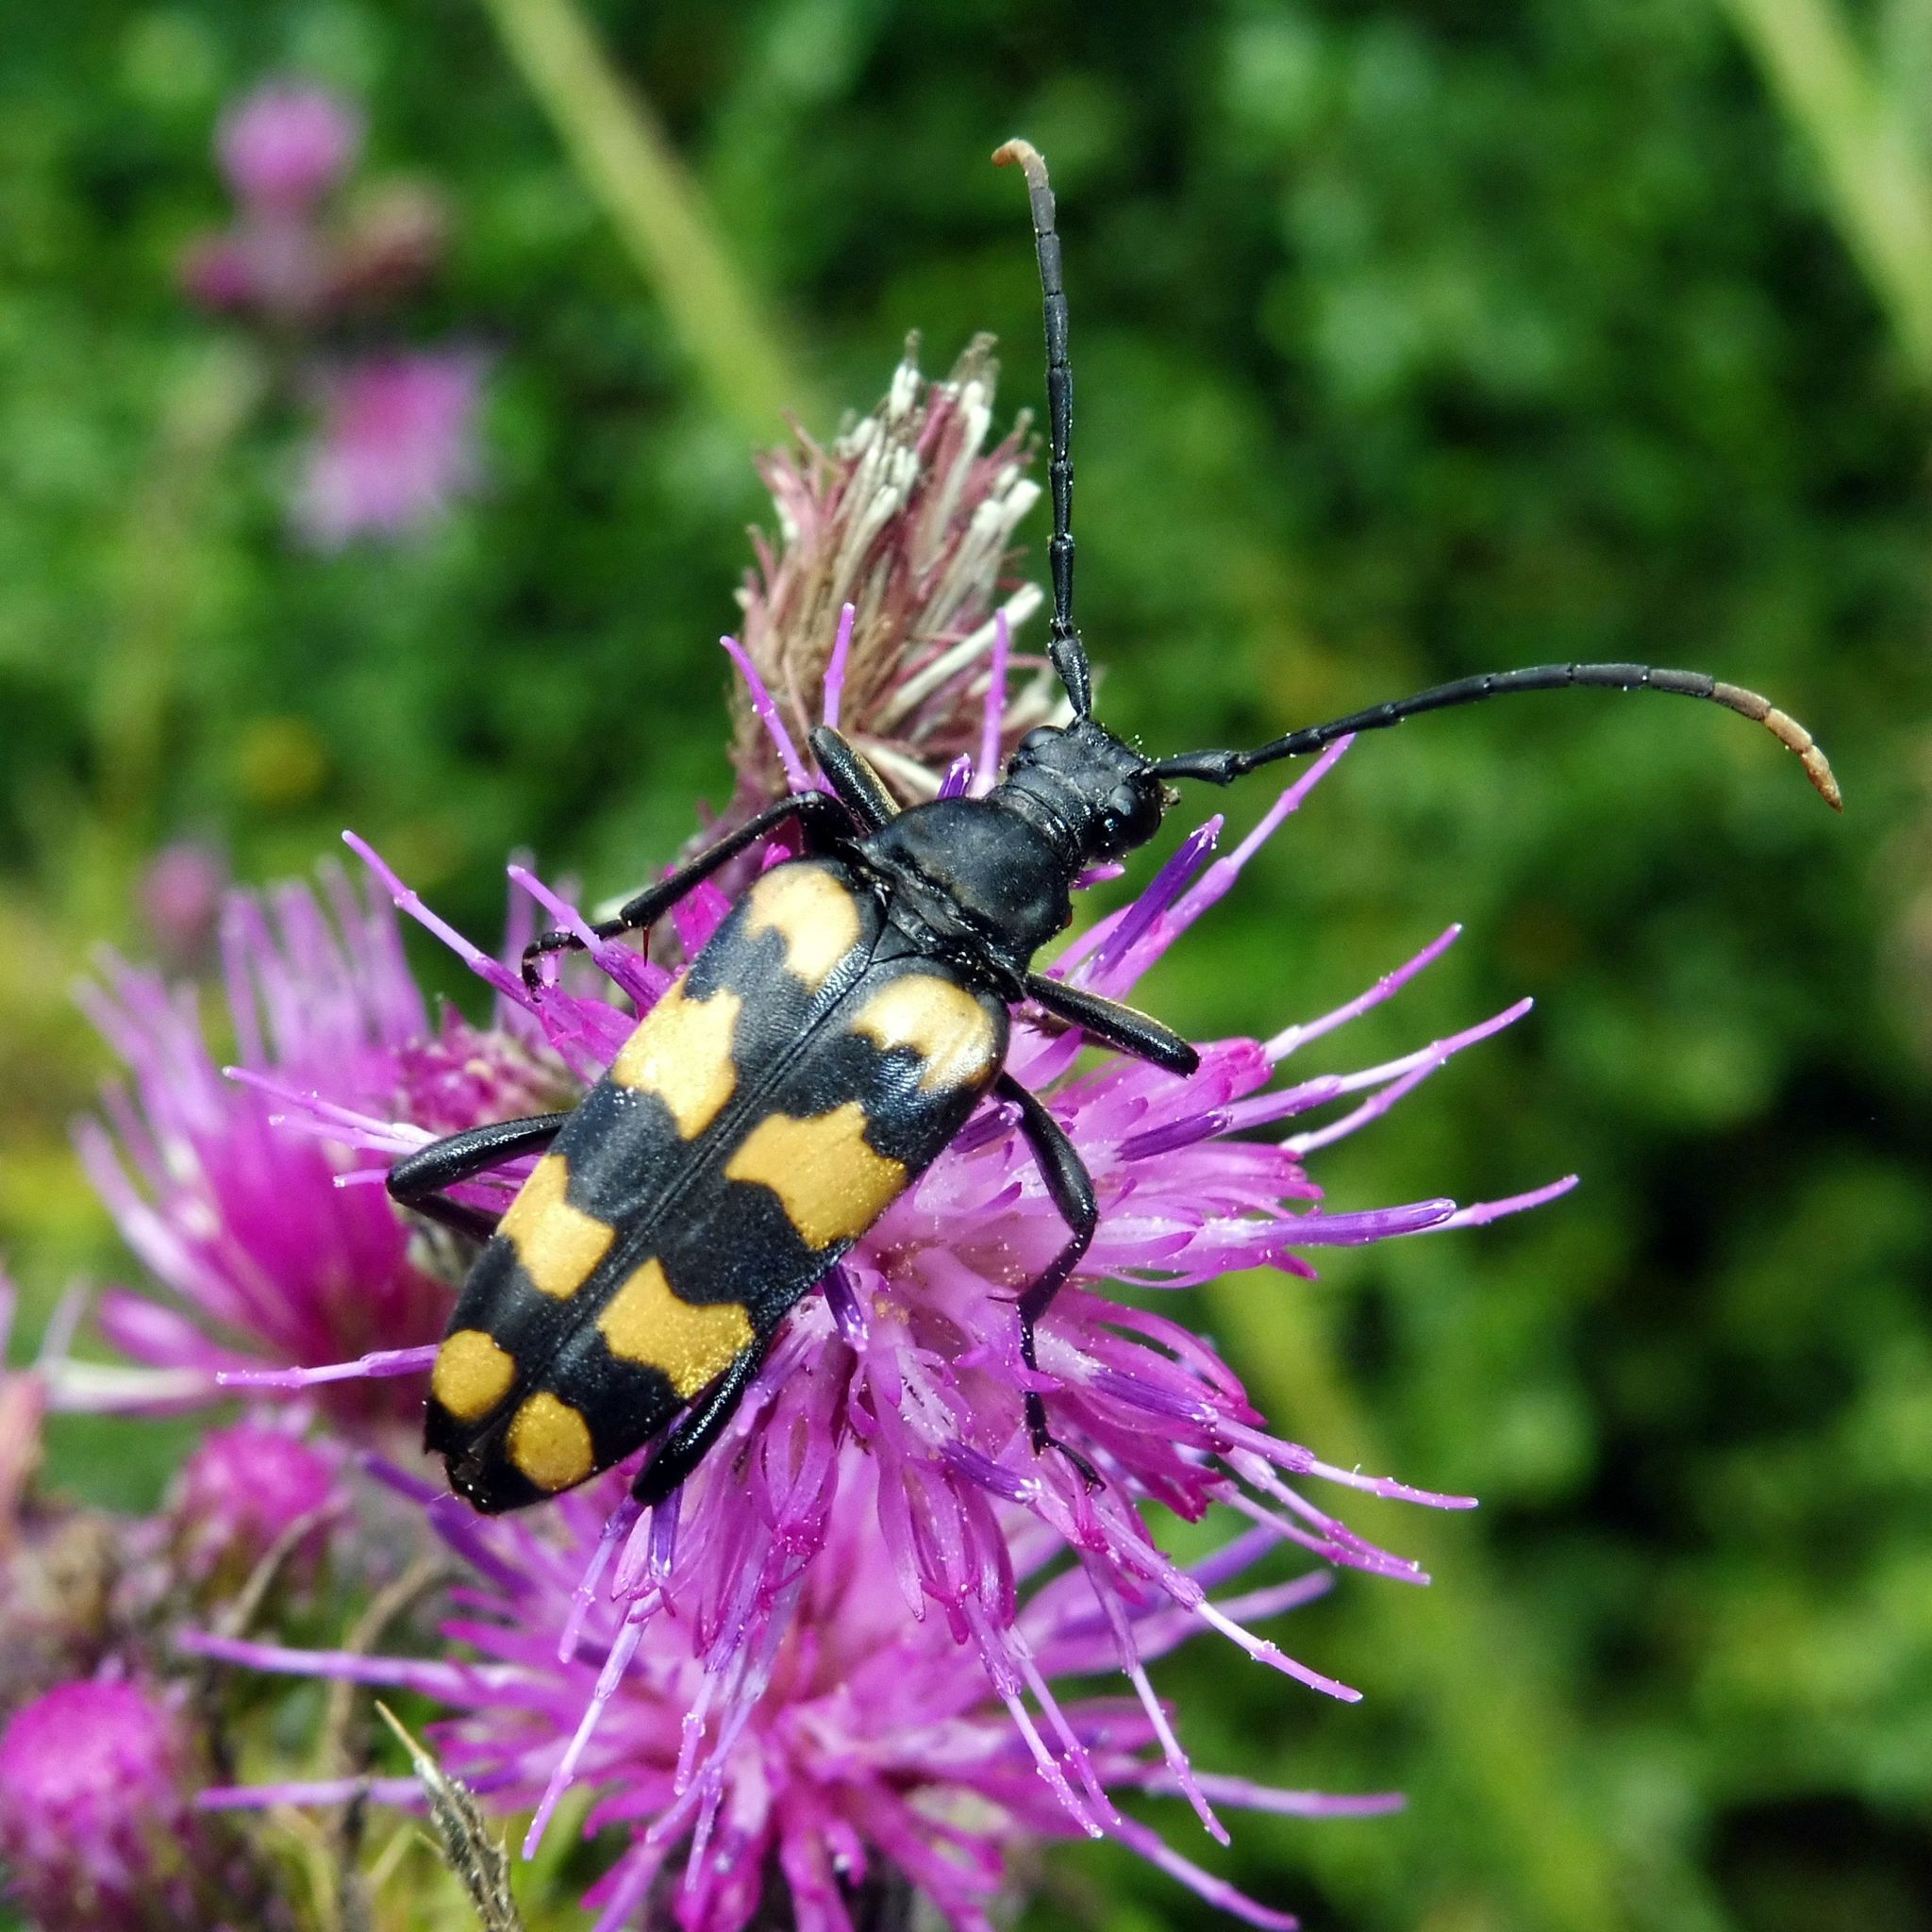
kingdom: Animalia
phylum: Arthropoda
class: Insecta
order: Coleoptera
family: Cerambycidae
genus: Leptura
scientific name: Leptura quadrifasciata
